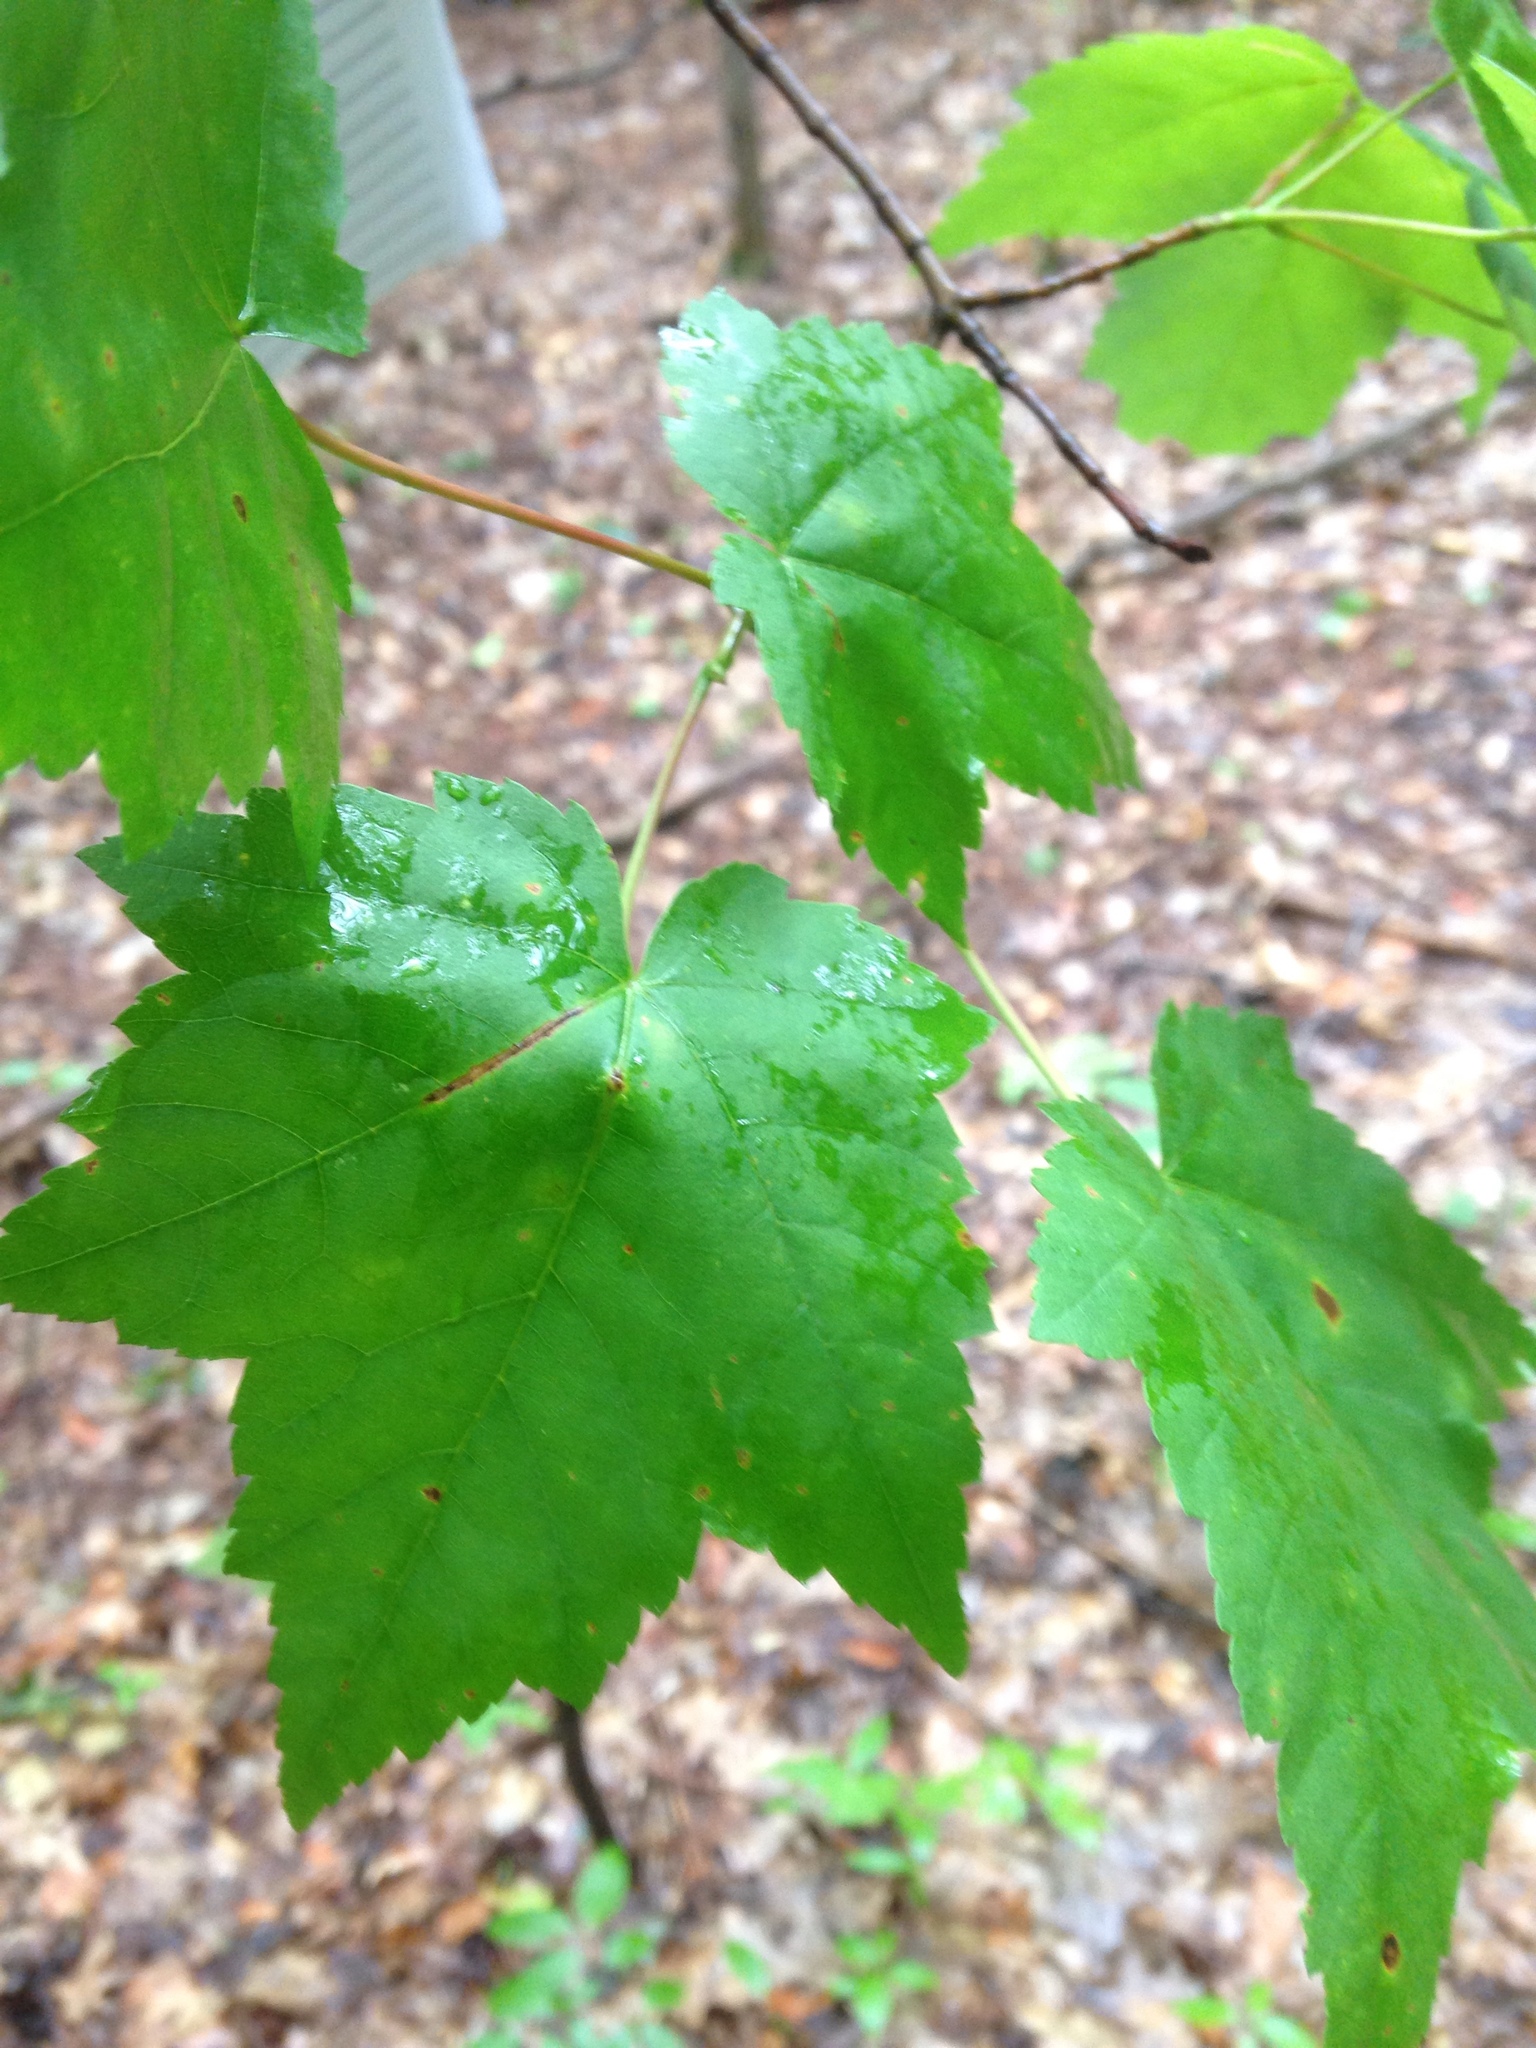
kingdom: Plantae
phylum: Tracheophyta
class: Magnoliopsida
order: Sapindales
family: Sapindaceae
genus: Acer
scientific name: Acer rubrum
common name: Red maple
